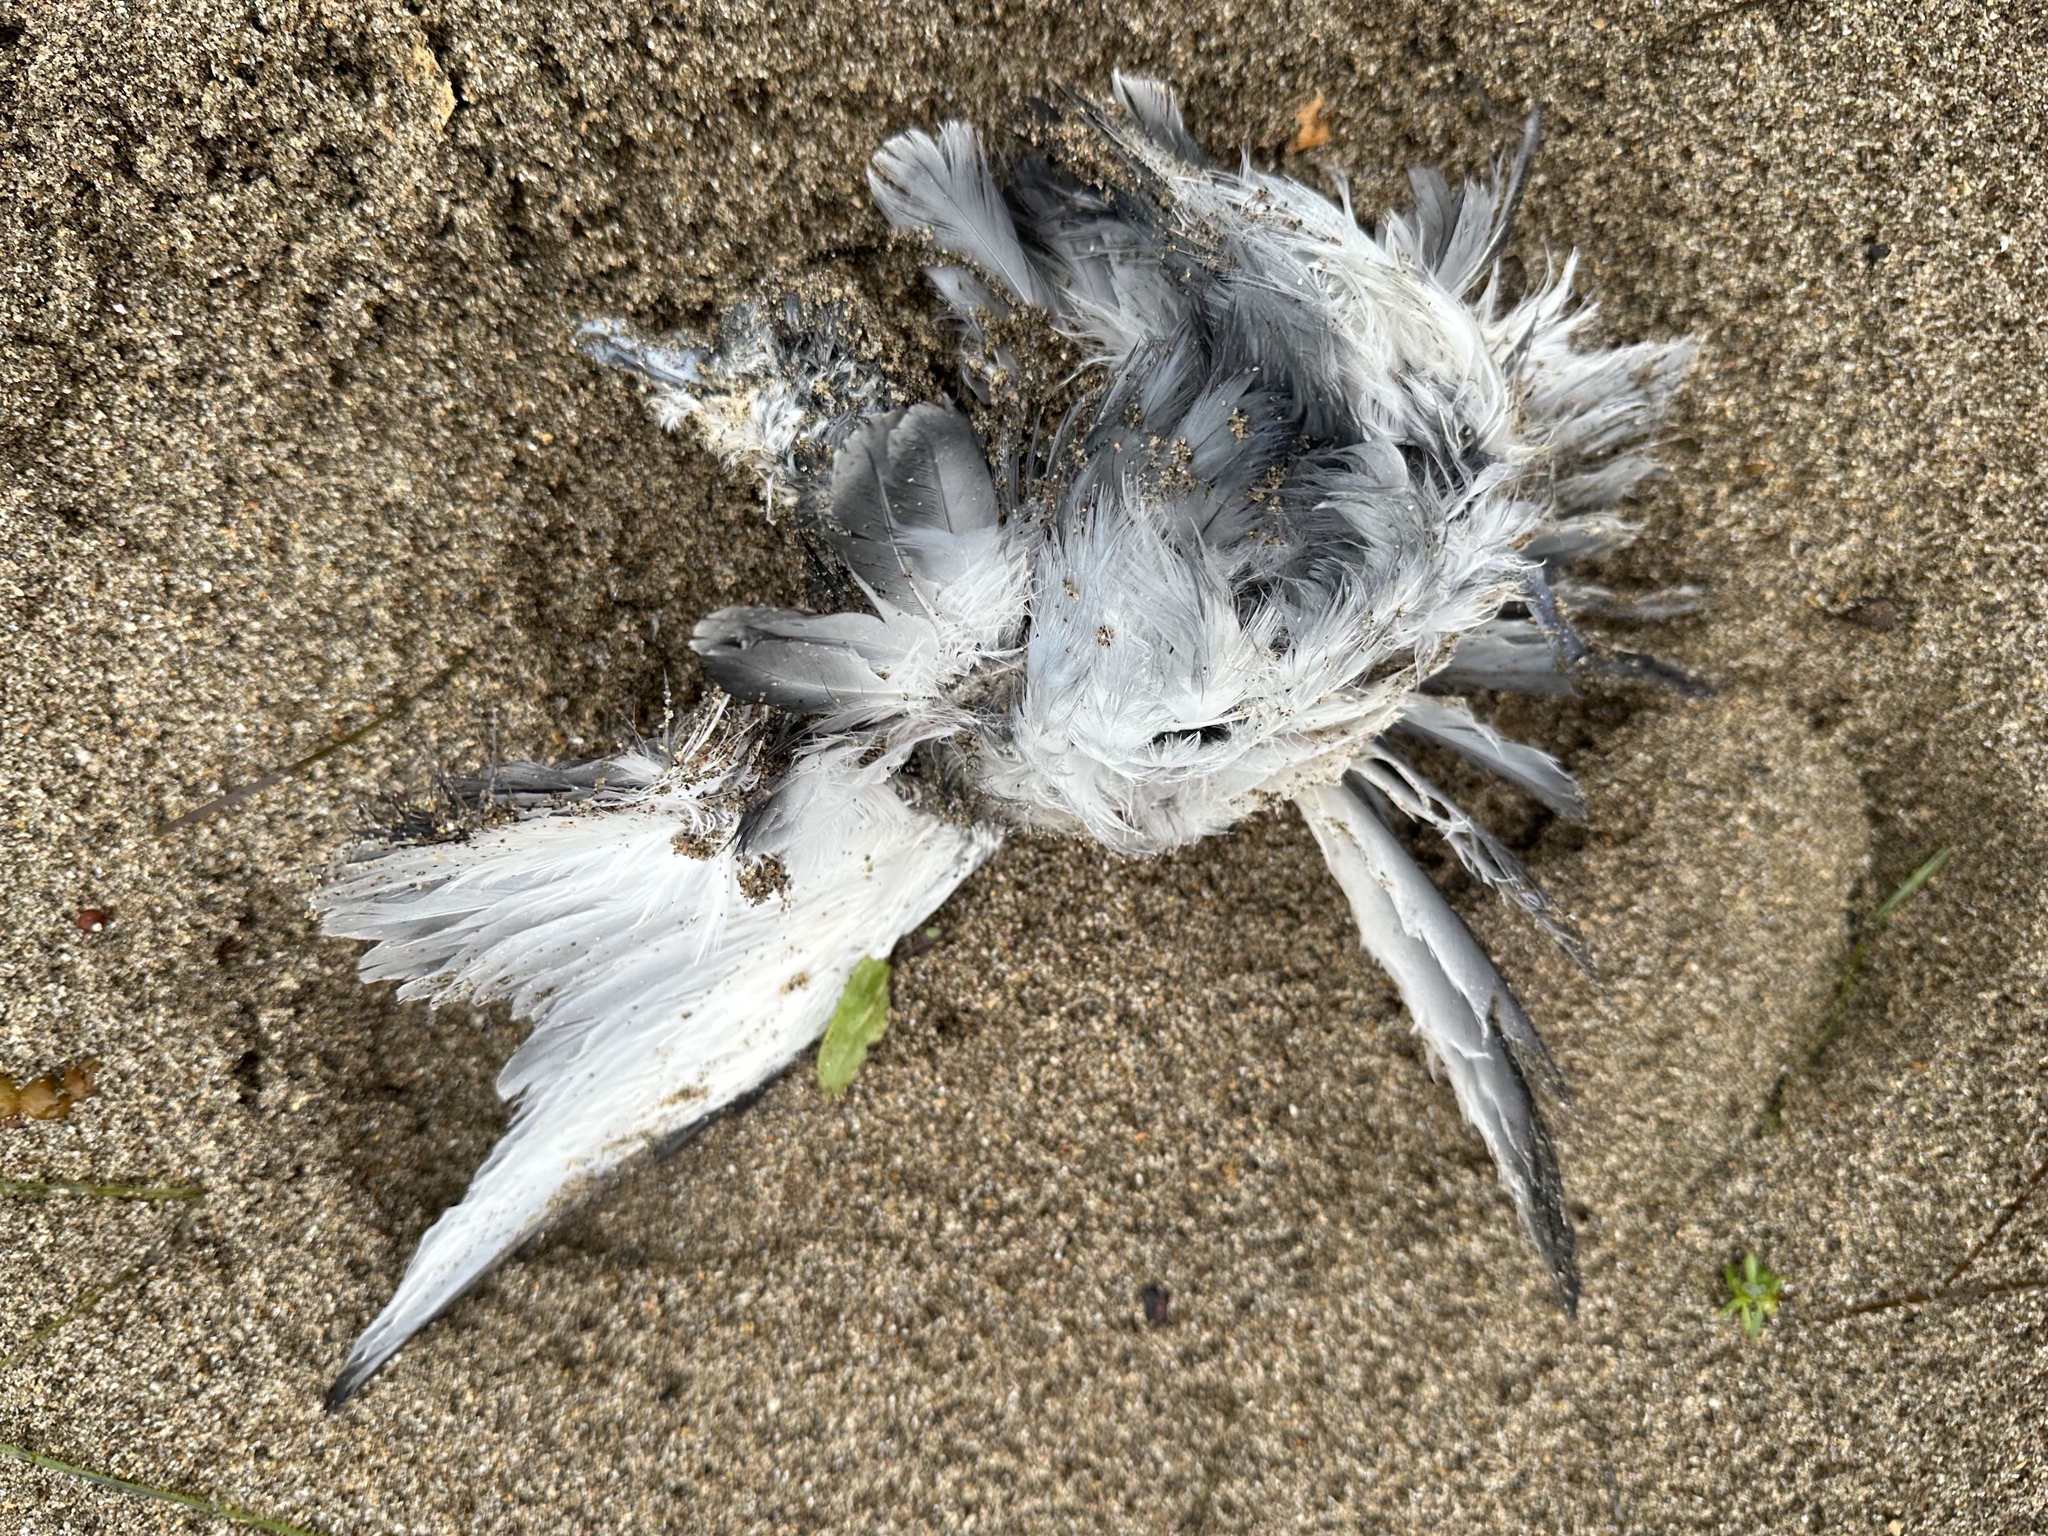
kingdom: Animalia
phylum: Chordata
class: Aves
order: Procellariiformes
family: Procellariidae
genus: Pachyptila
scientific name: Pachyptila turtur
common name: Fairy prion
